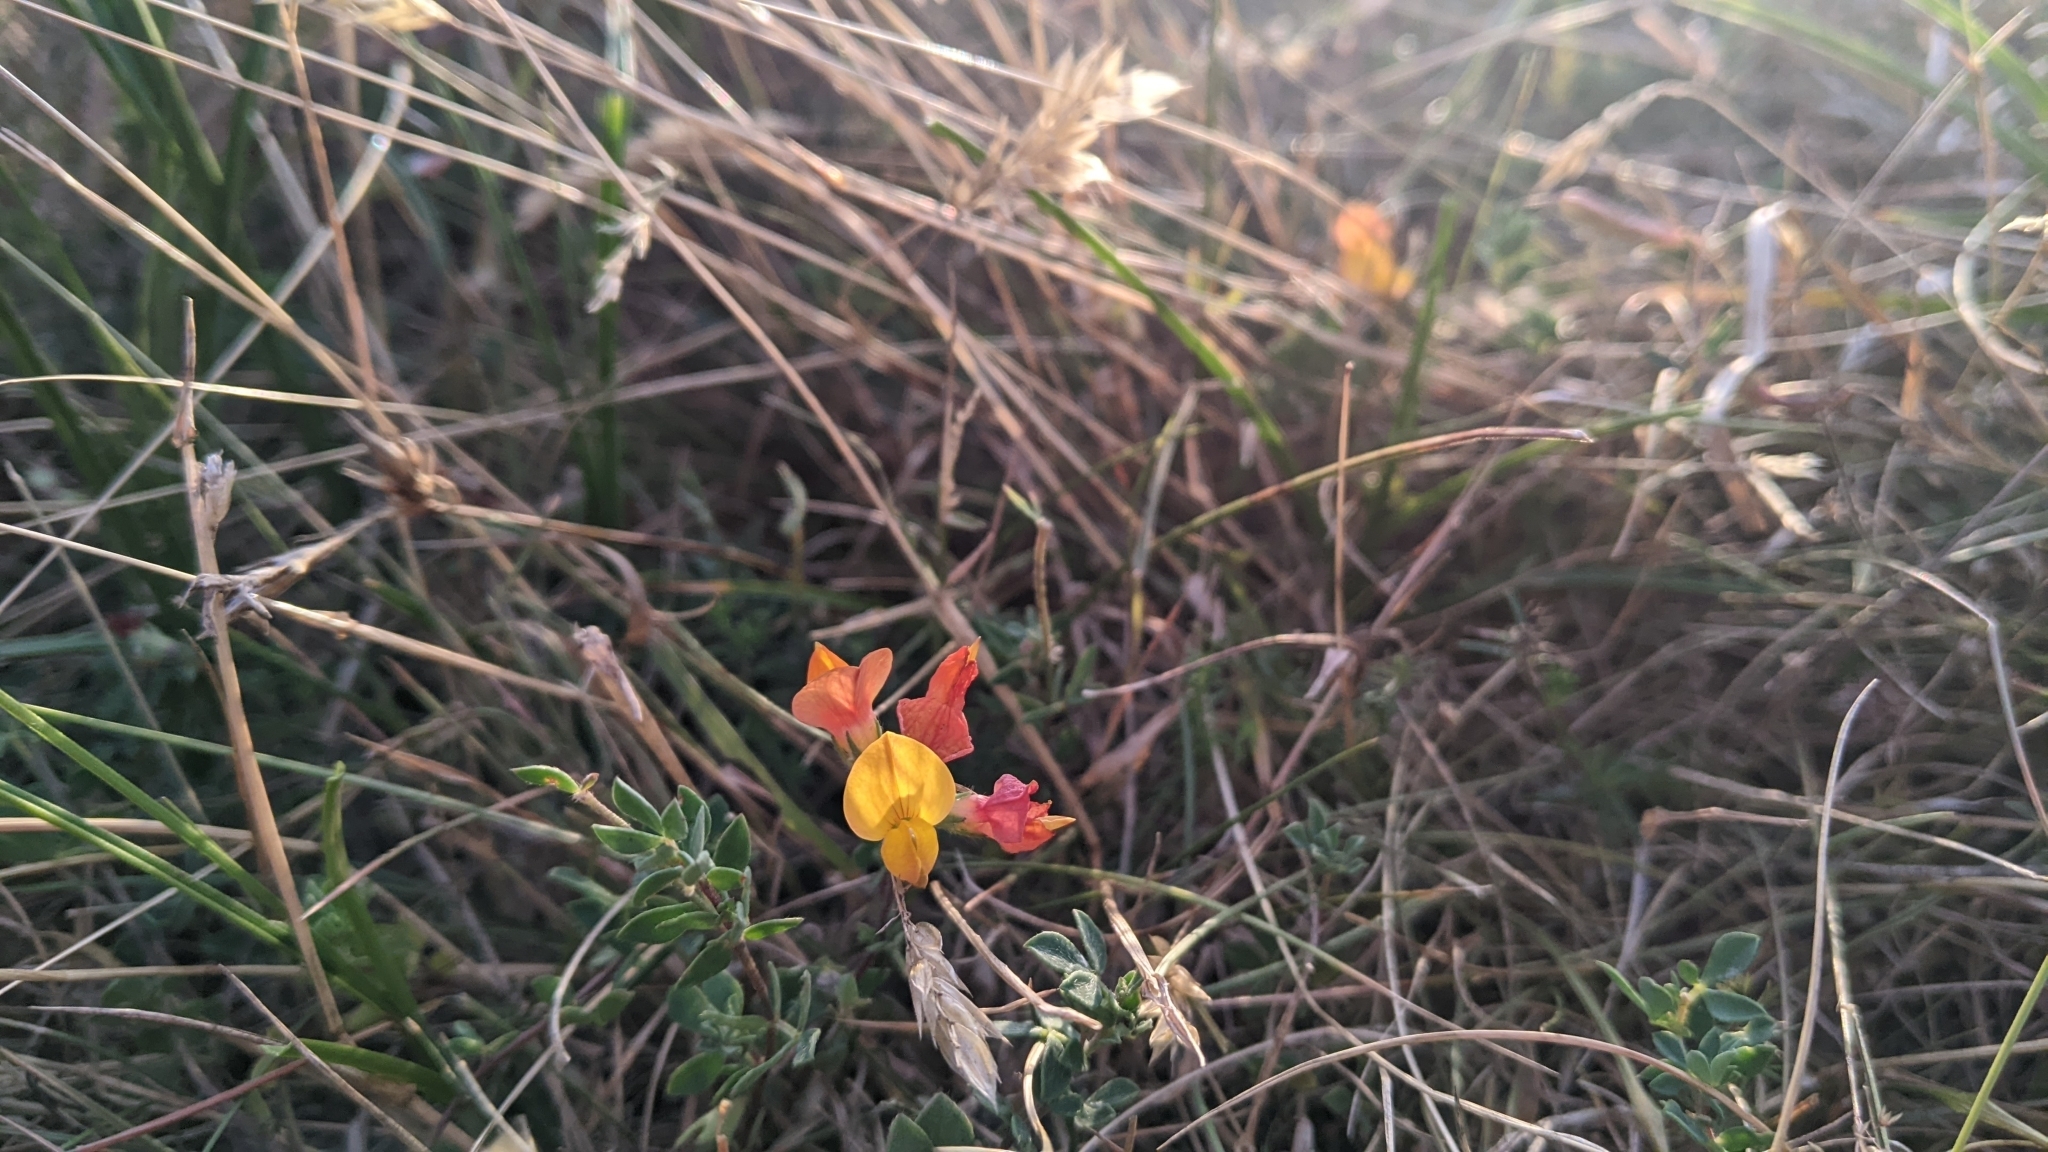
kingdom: Plantae
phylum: Tracheophyta
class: Magnoliopsida
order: Fabales
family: Fabaceae
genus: Lotus
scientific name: Lotus corniculatus
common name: Common bird's-foot-trefoil
